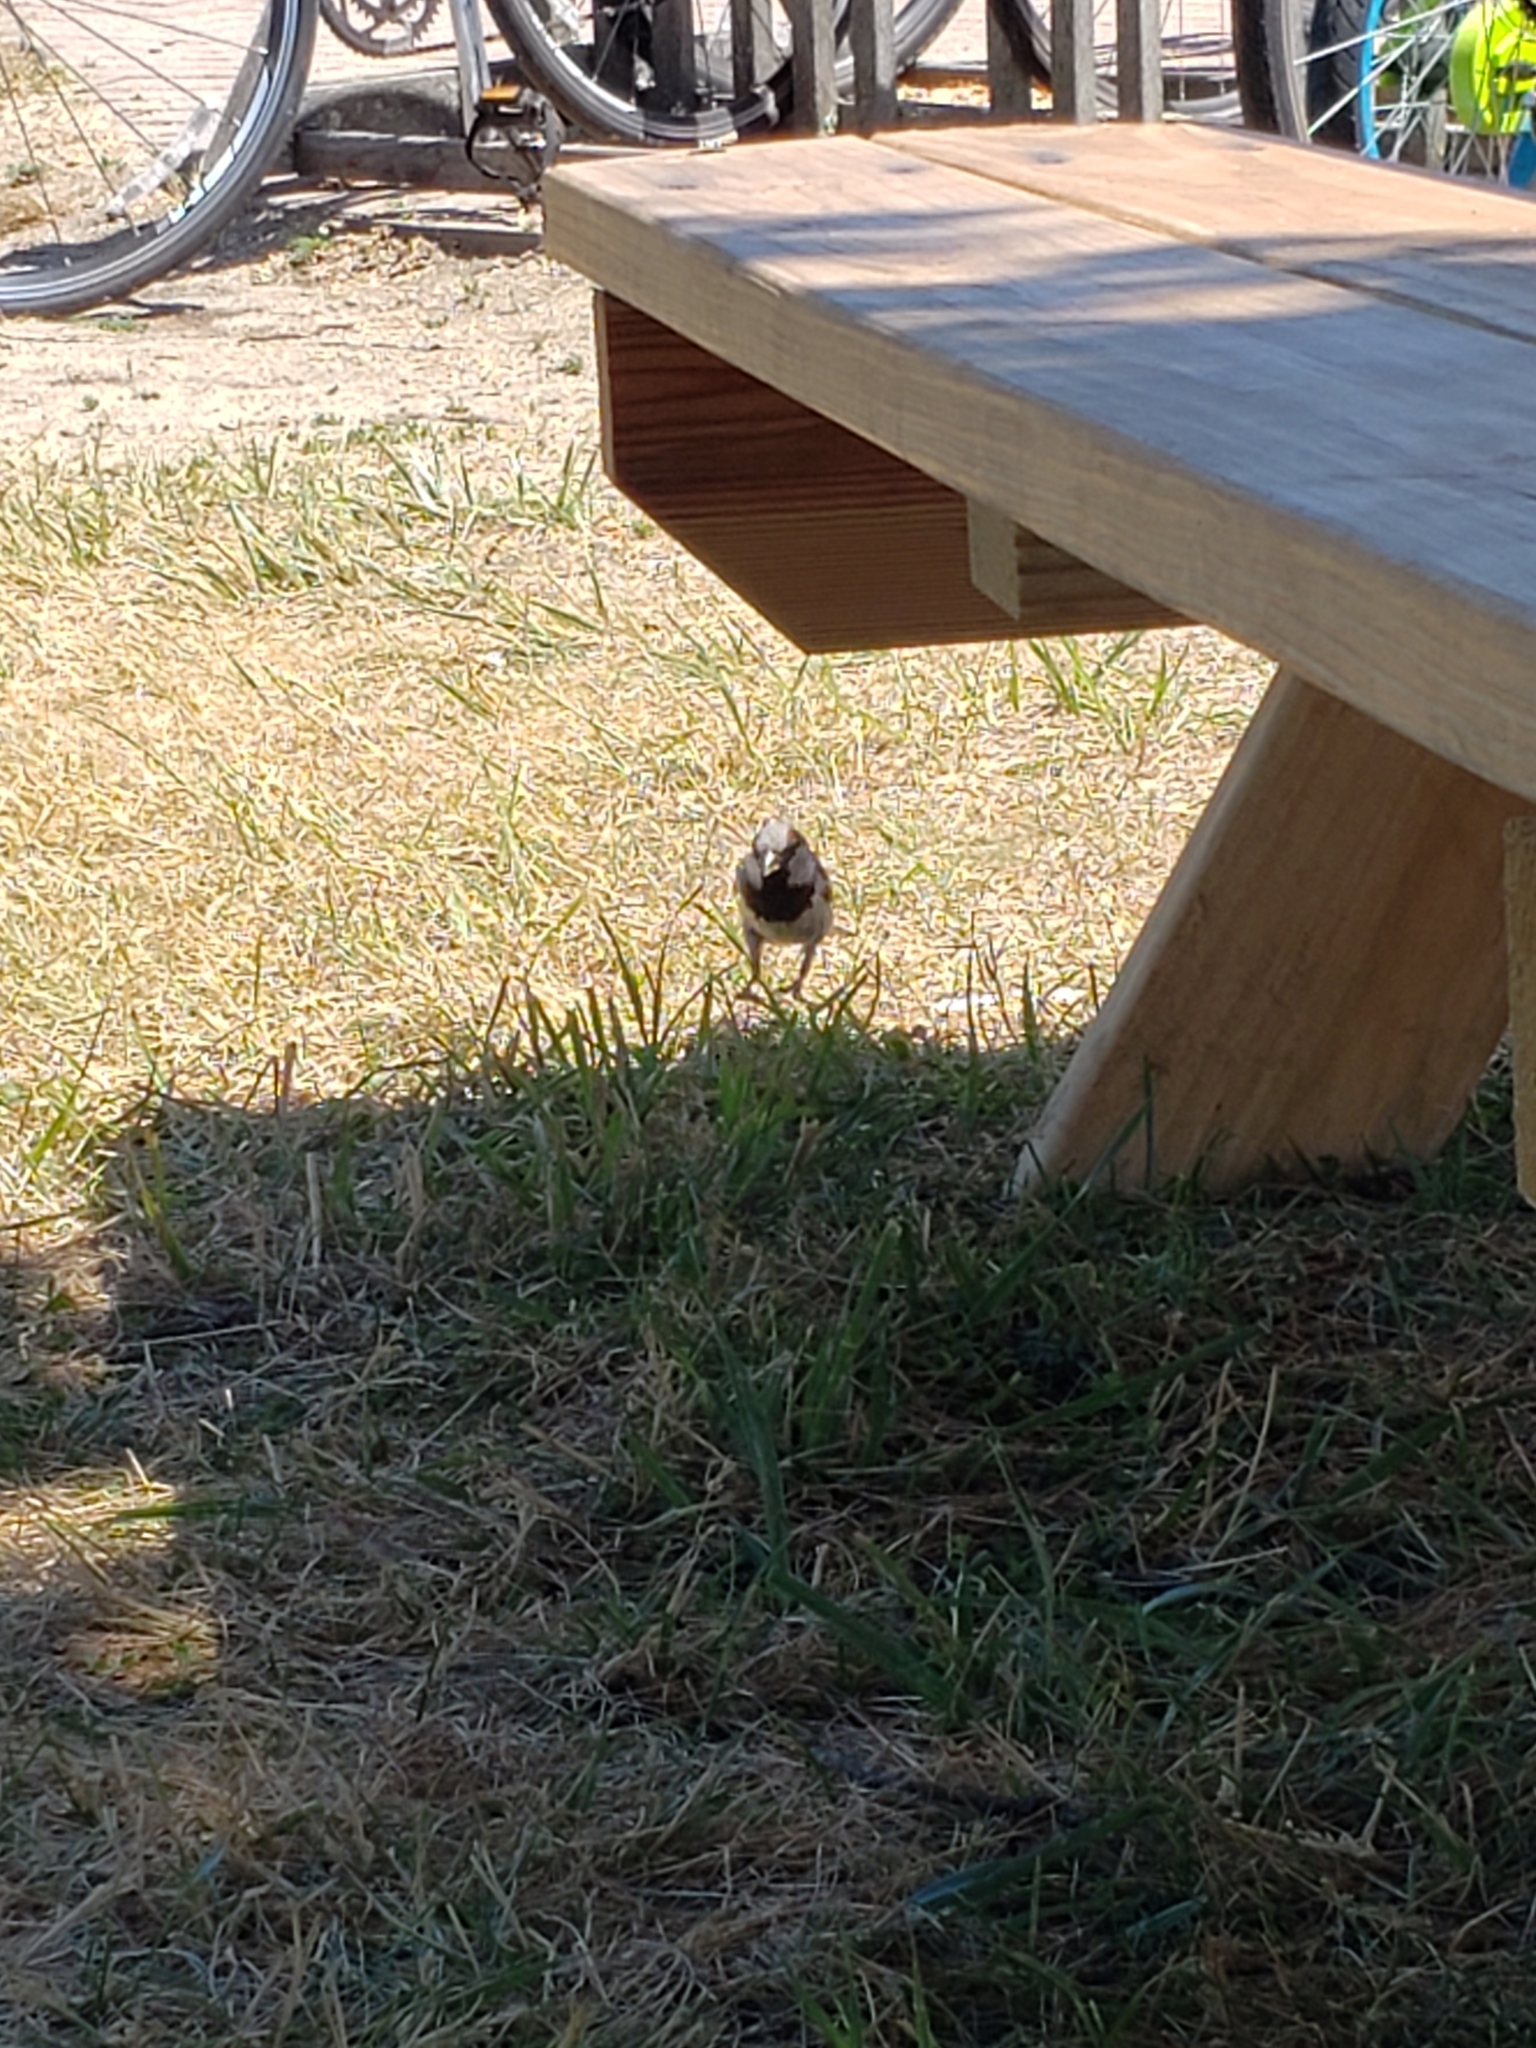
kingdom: Animalia
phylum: Chordata
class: Aves
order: Passeriformes
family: Passeridae
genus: Passer
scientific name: Passer domesticus
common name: House sparrow
